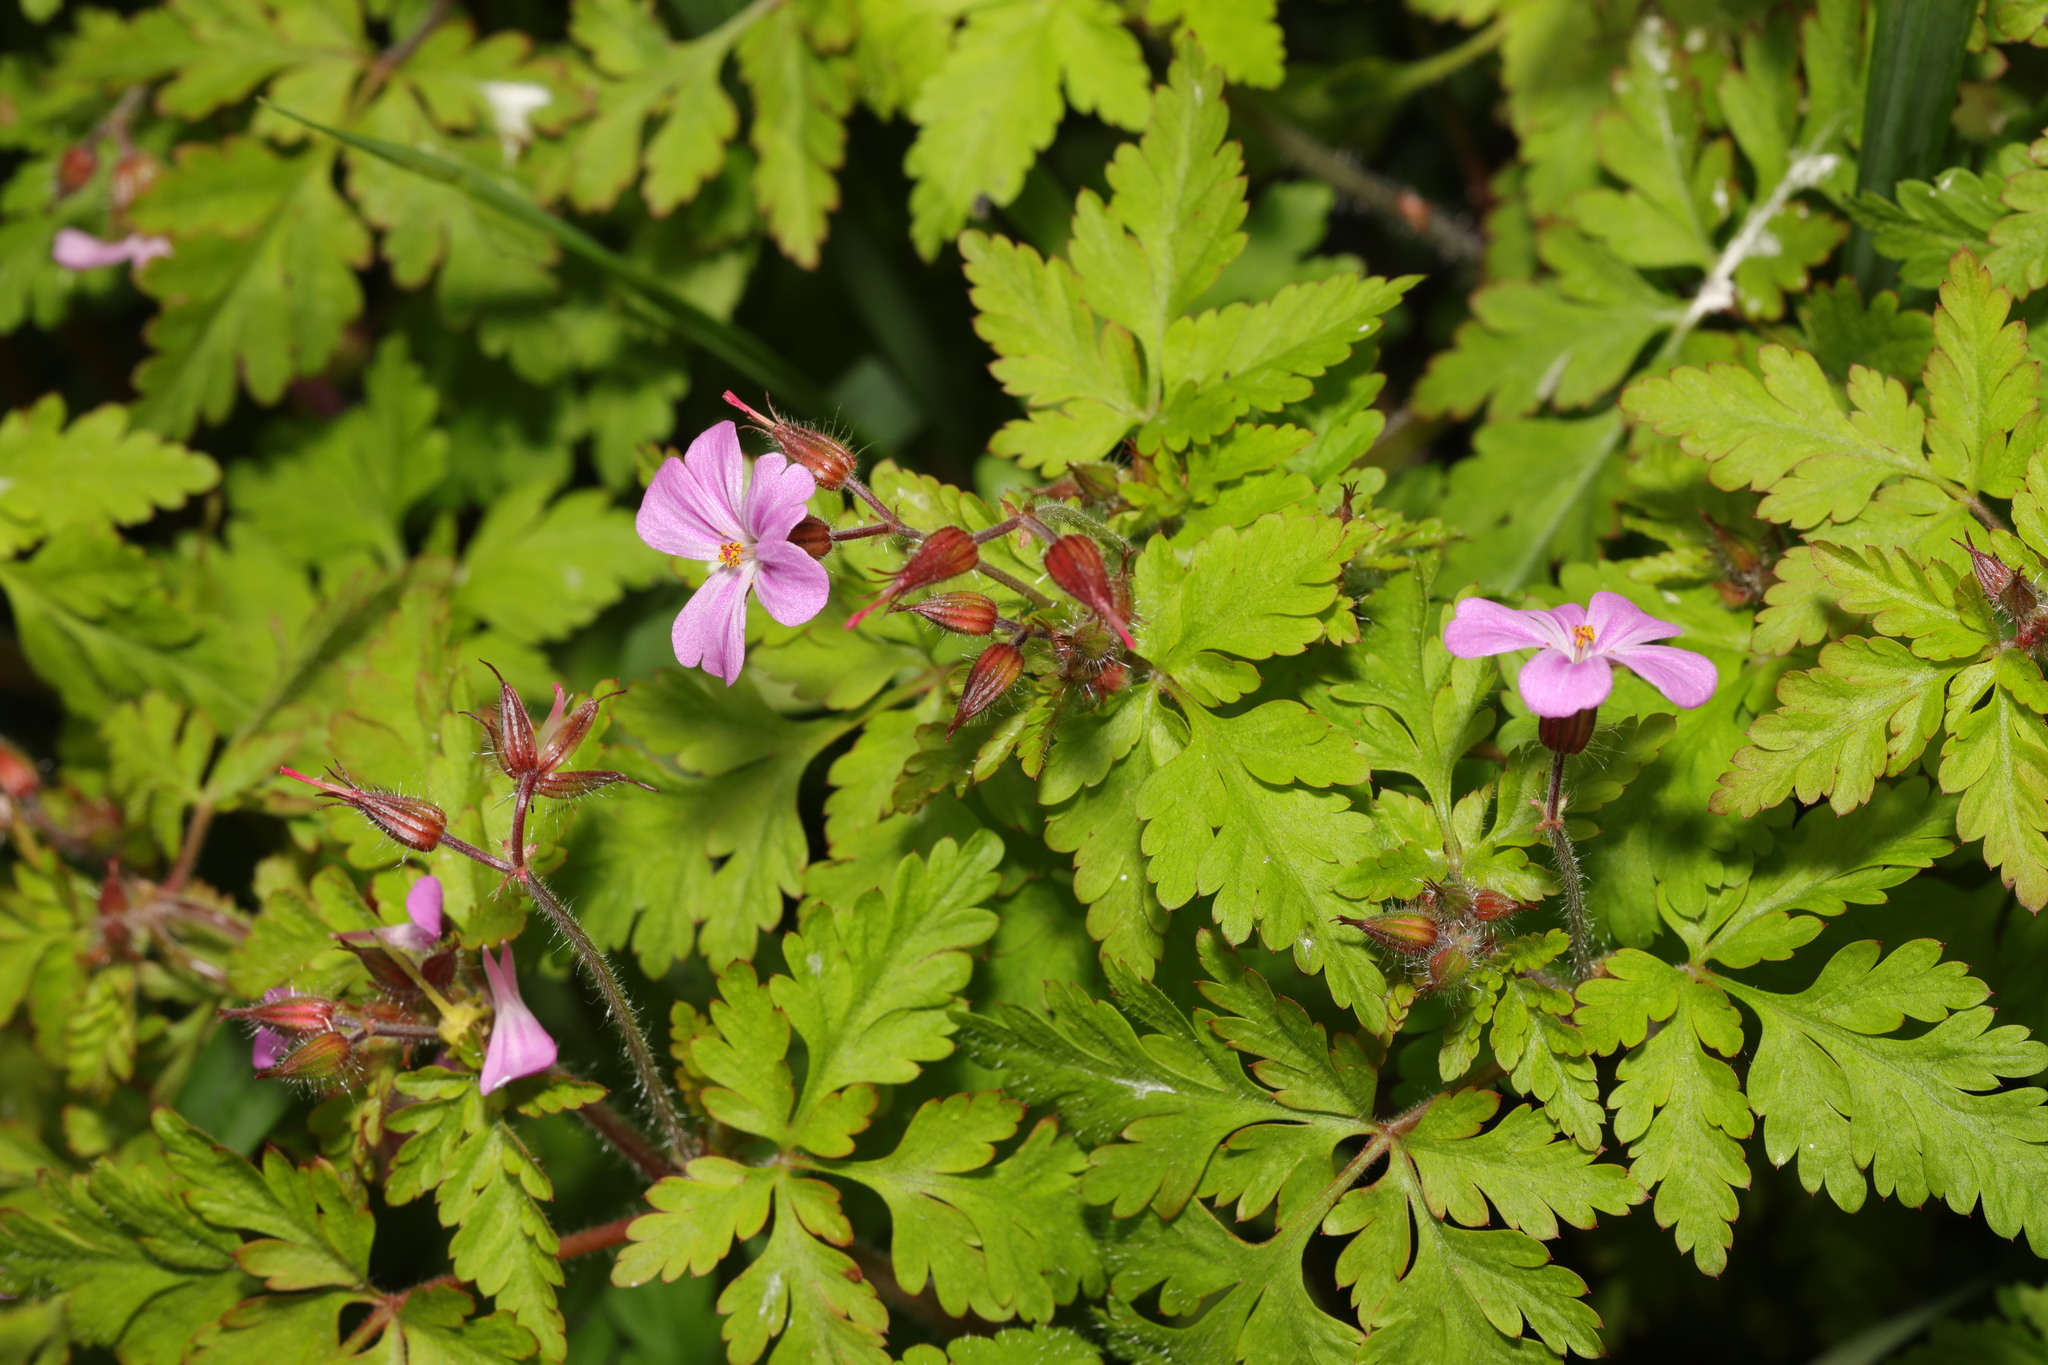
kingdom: Plantae
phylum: Tracheophyta
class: Magnoliopsida
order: Geraniales
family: Geraniaceae
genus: Geranium
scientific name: Geranium robertianum
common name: Herb-robert
